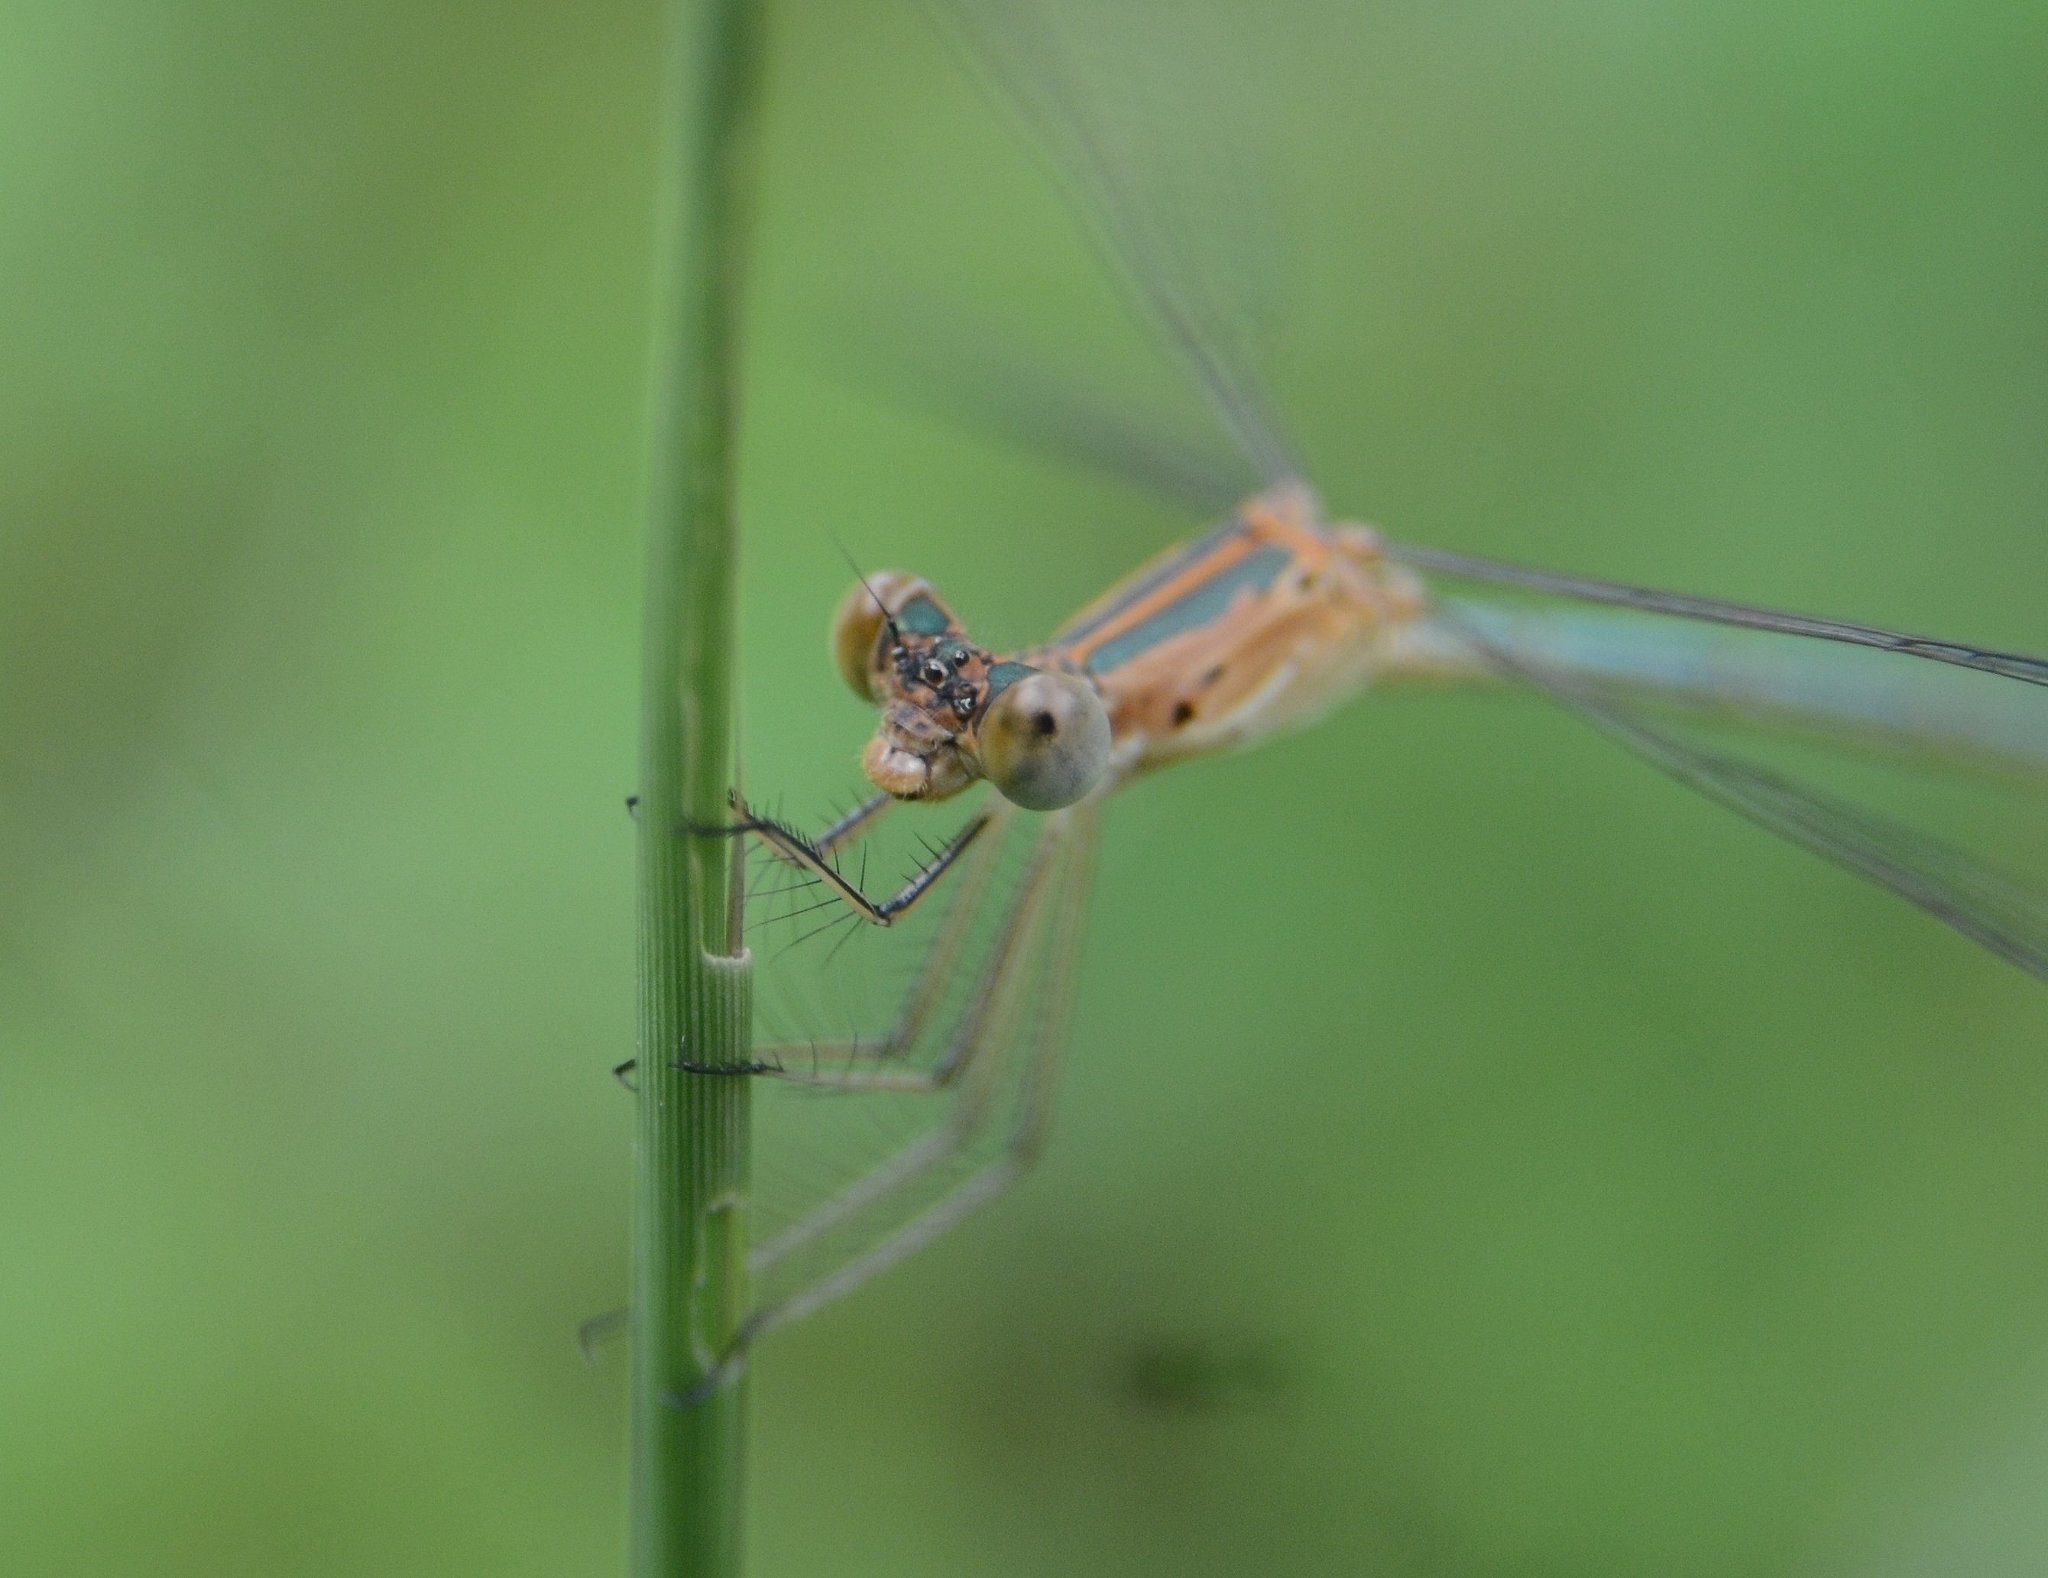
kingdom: Animalia
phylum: Arthropoda
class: Insecta
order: Odonata
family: Lestidae
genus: Lestes
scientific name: Lestes elatus
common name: Emerald spreadwing
